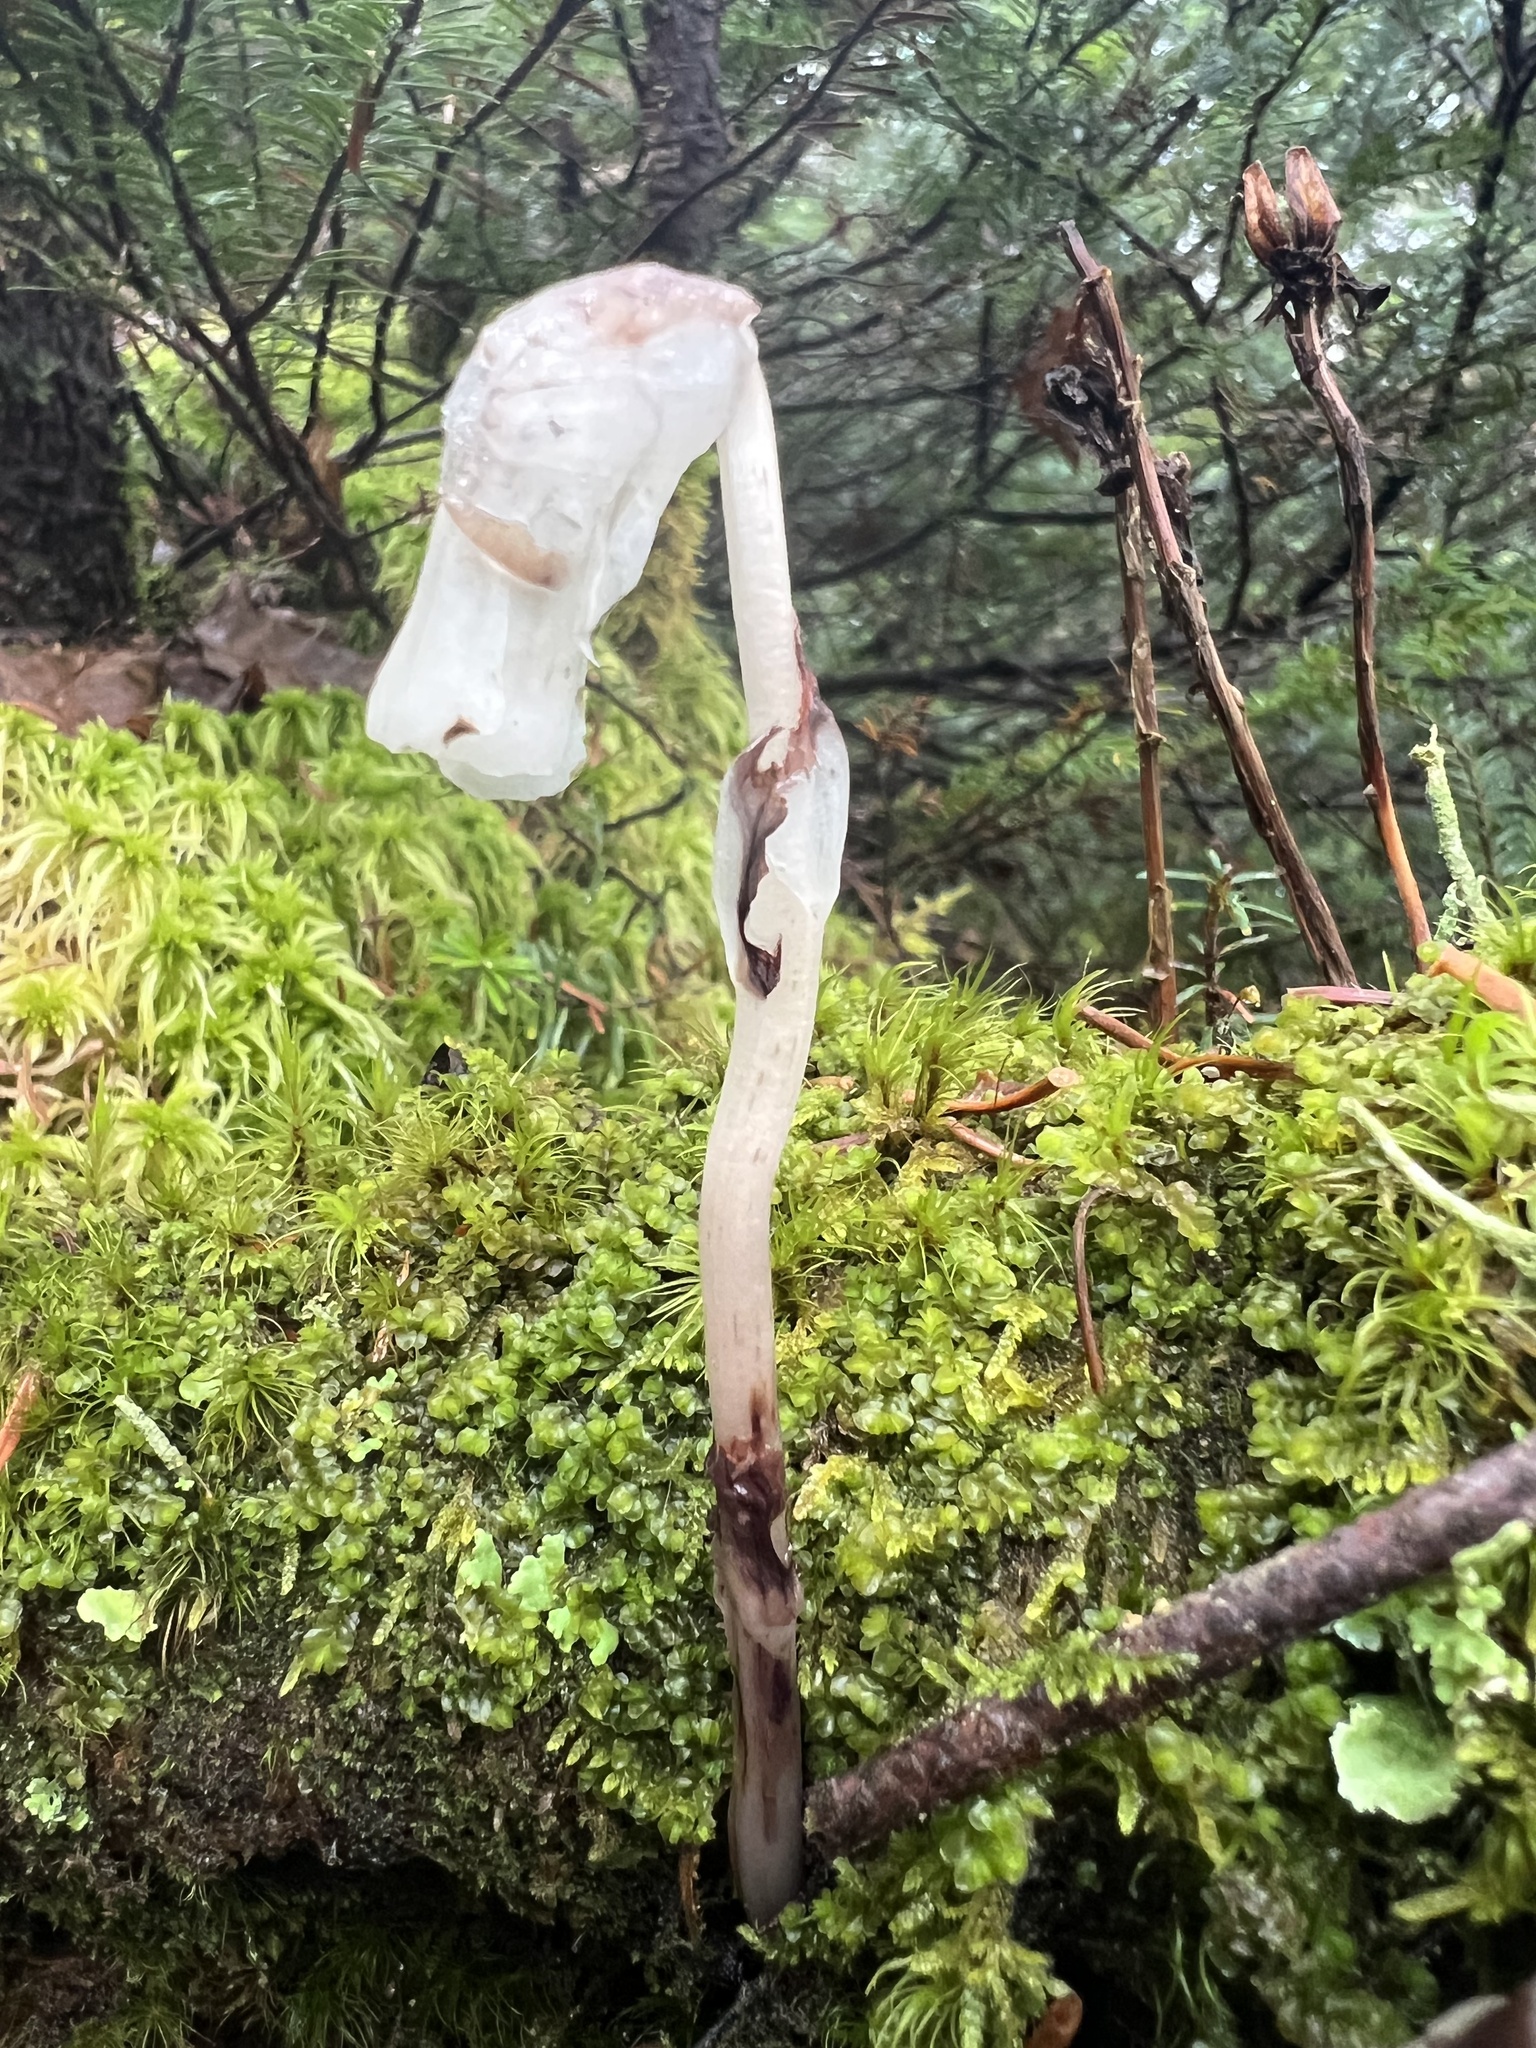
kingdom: Plantae
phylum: Tracheophyta
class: Magnoliopsida
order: Ericales
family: Ericaceae
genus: Monotropa
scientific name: Monotropa uniflora
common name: Convulsion root
